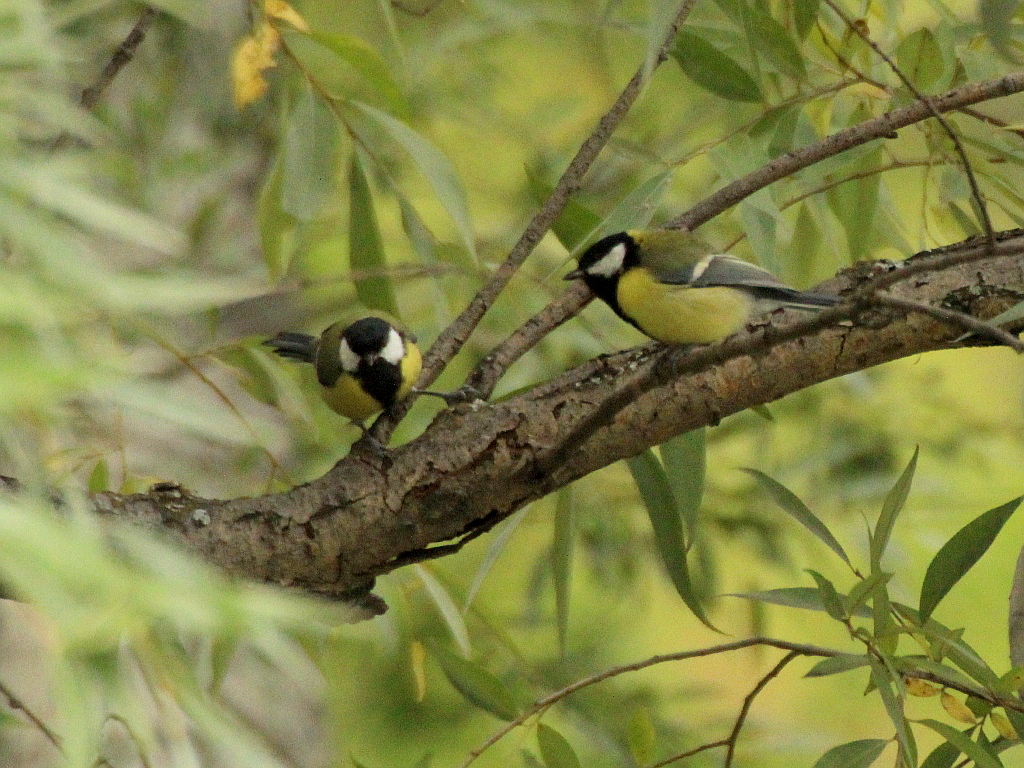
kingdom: Animalia
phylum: Chordata
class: Aves
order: Passeriformes
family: Paridae
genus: Parus
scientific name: Parus major
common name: Great tit
